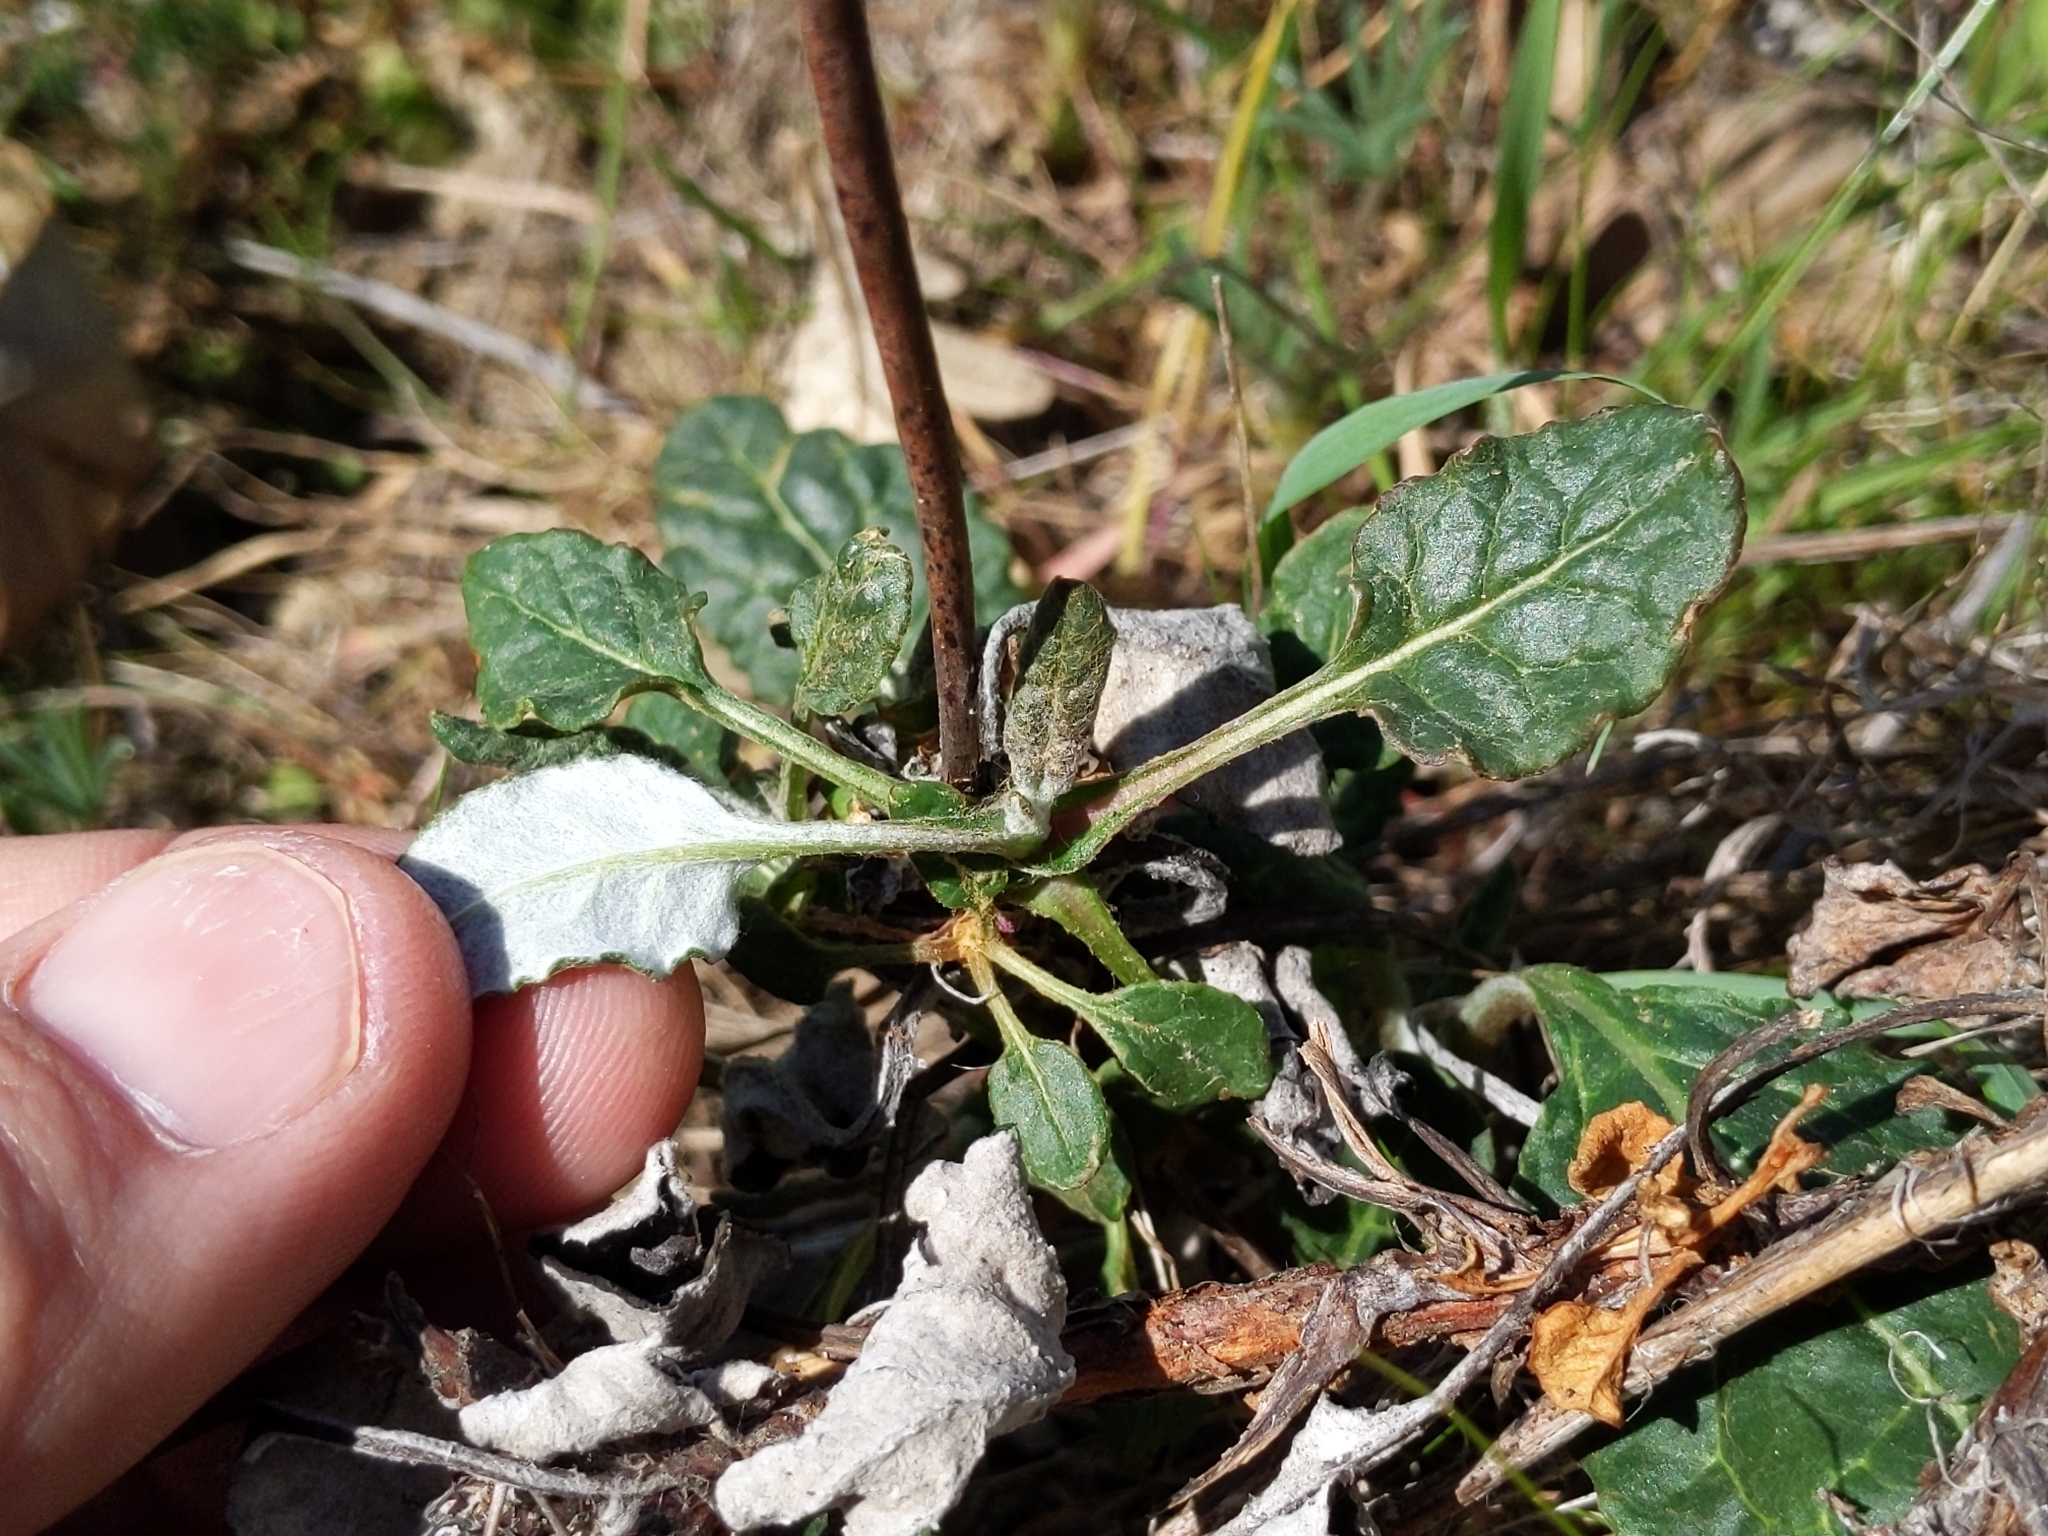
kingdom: Plantae
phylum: Tracheophyta
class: Magnoliopsida
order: Caryophyllales
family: Polygonaceae
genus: Eriogonum
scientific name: Eriogonum nudum
